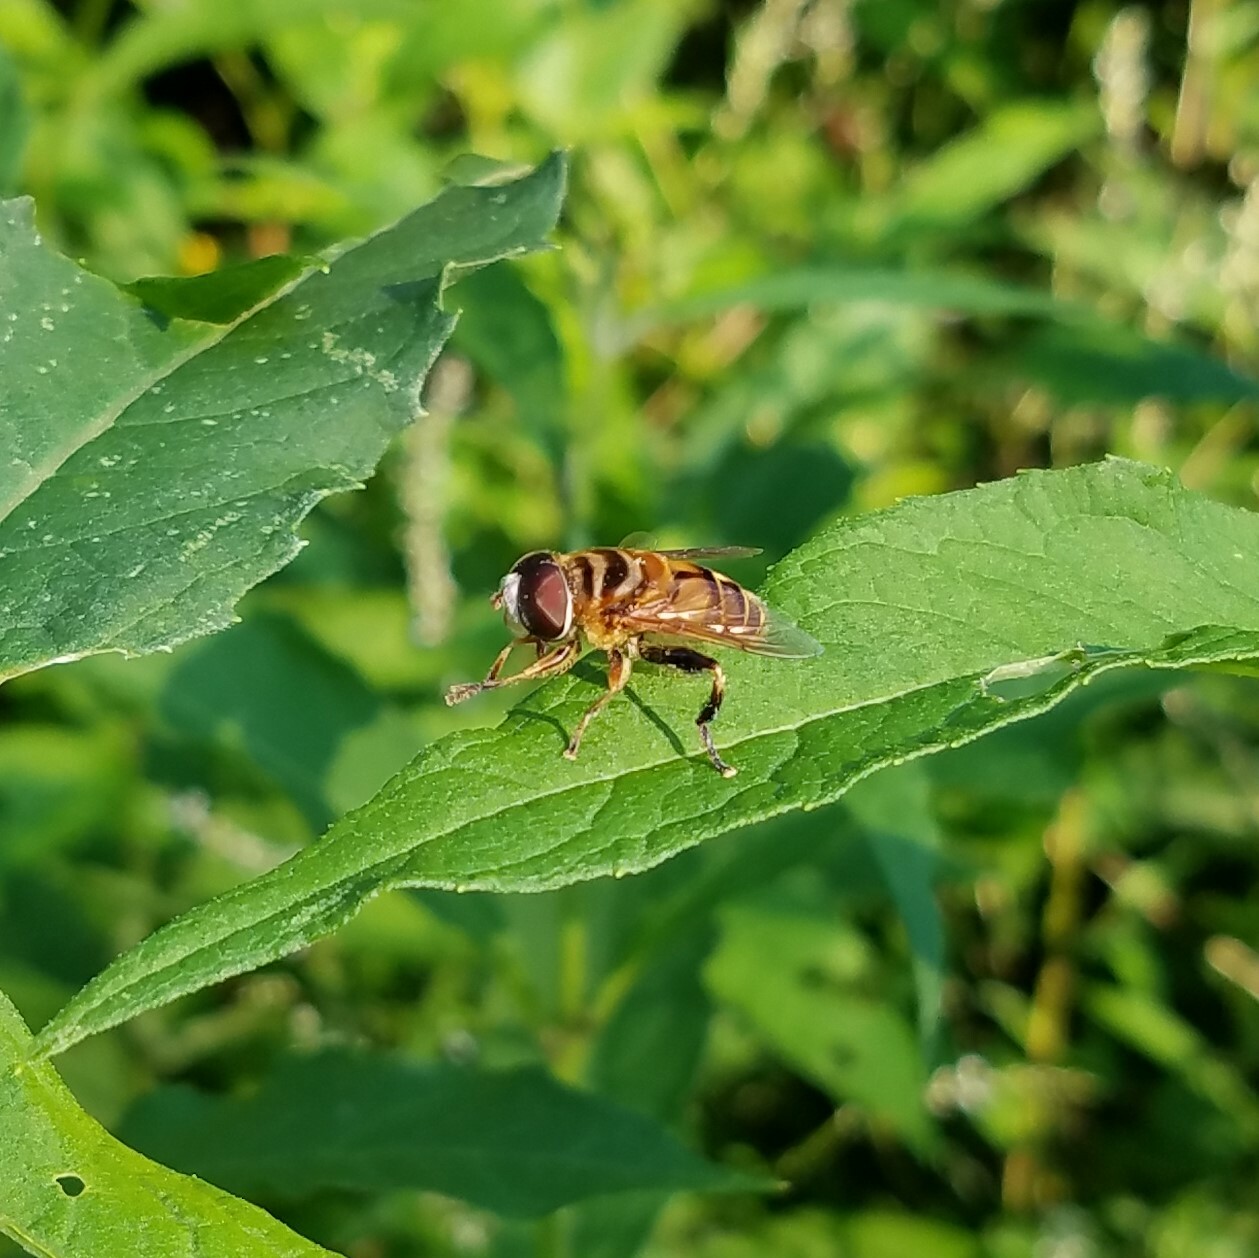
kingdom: Animalia
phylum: Arthropoda
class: Insecta
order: Diptera
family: Syrphidae
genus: Palpada
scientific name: Palpada vinetorum
